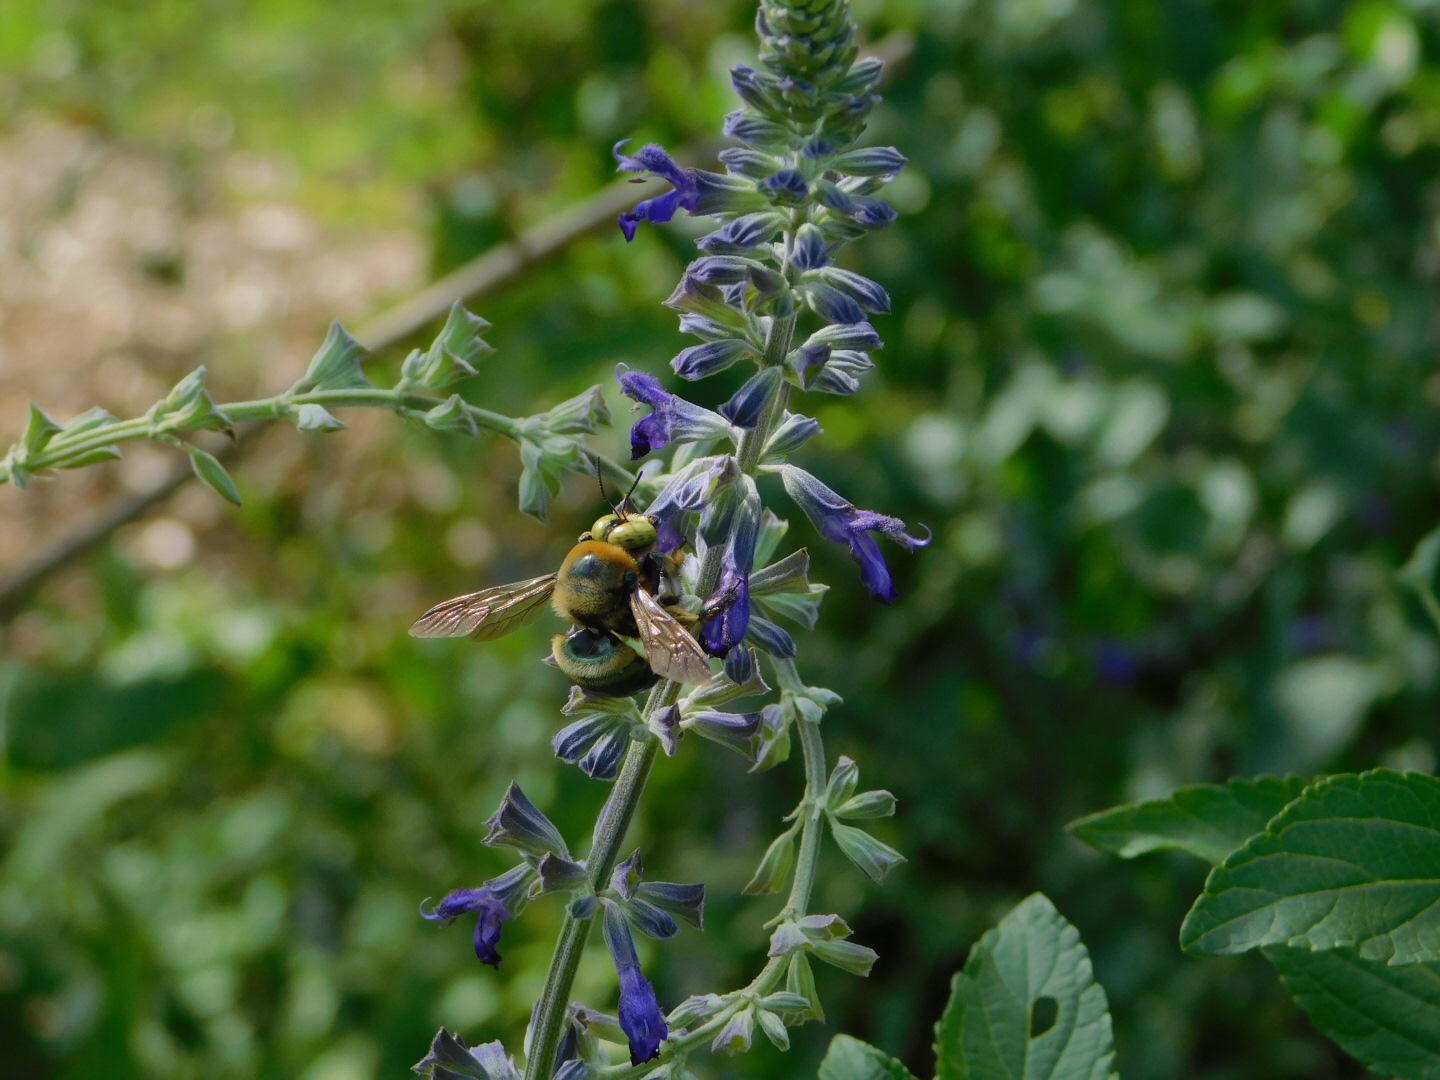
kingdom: Animalia
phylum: Arthropoda
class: Insecta
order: Hymenoptera
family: Apidae
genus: Xylocopa
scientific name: Xylocopa micans
